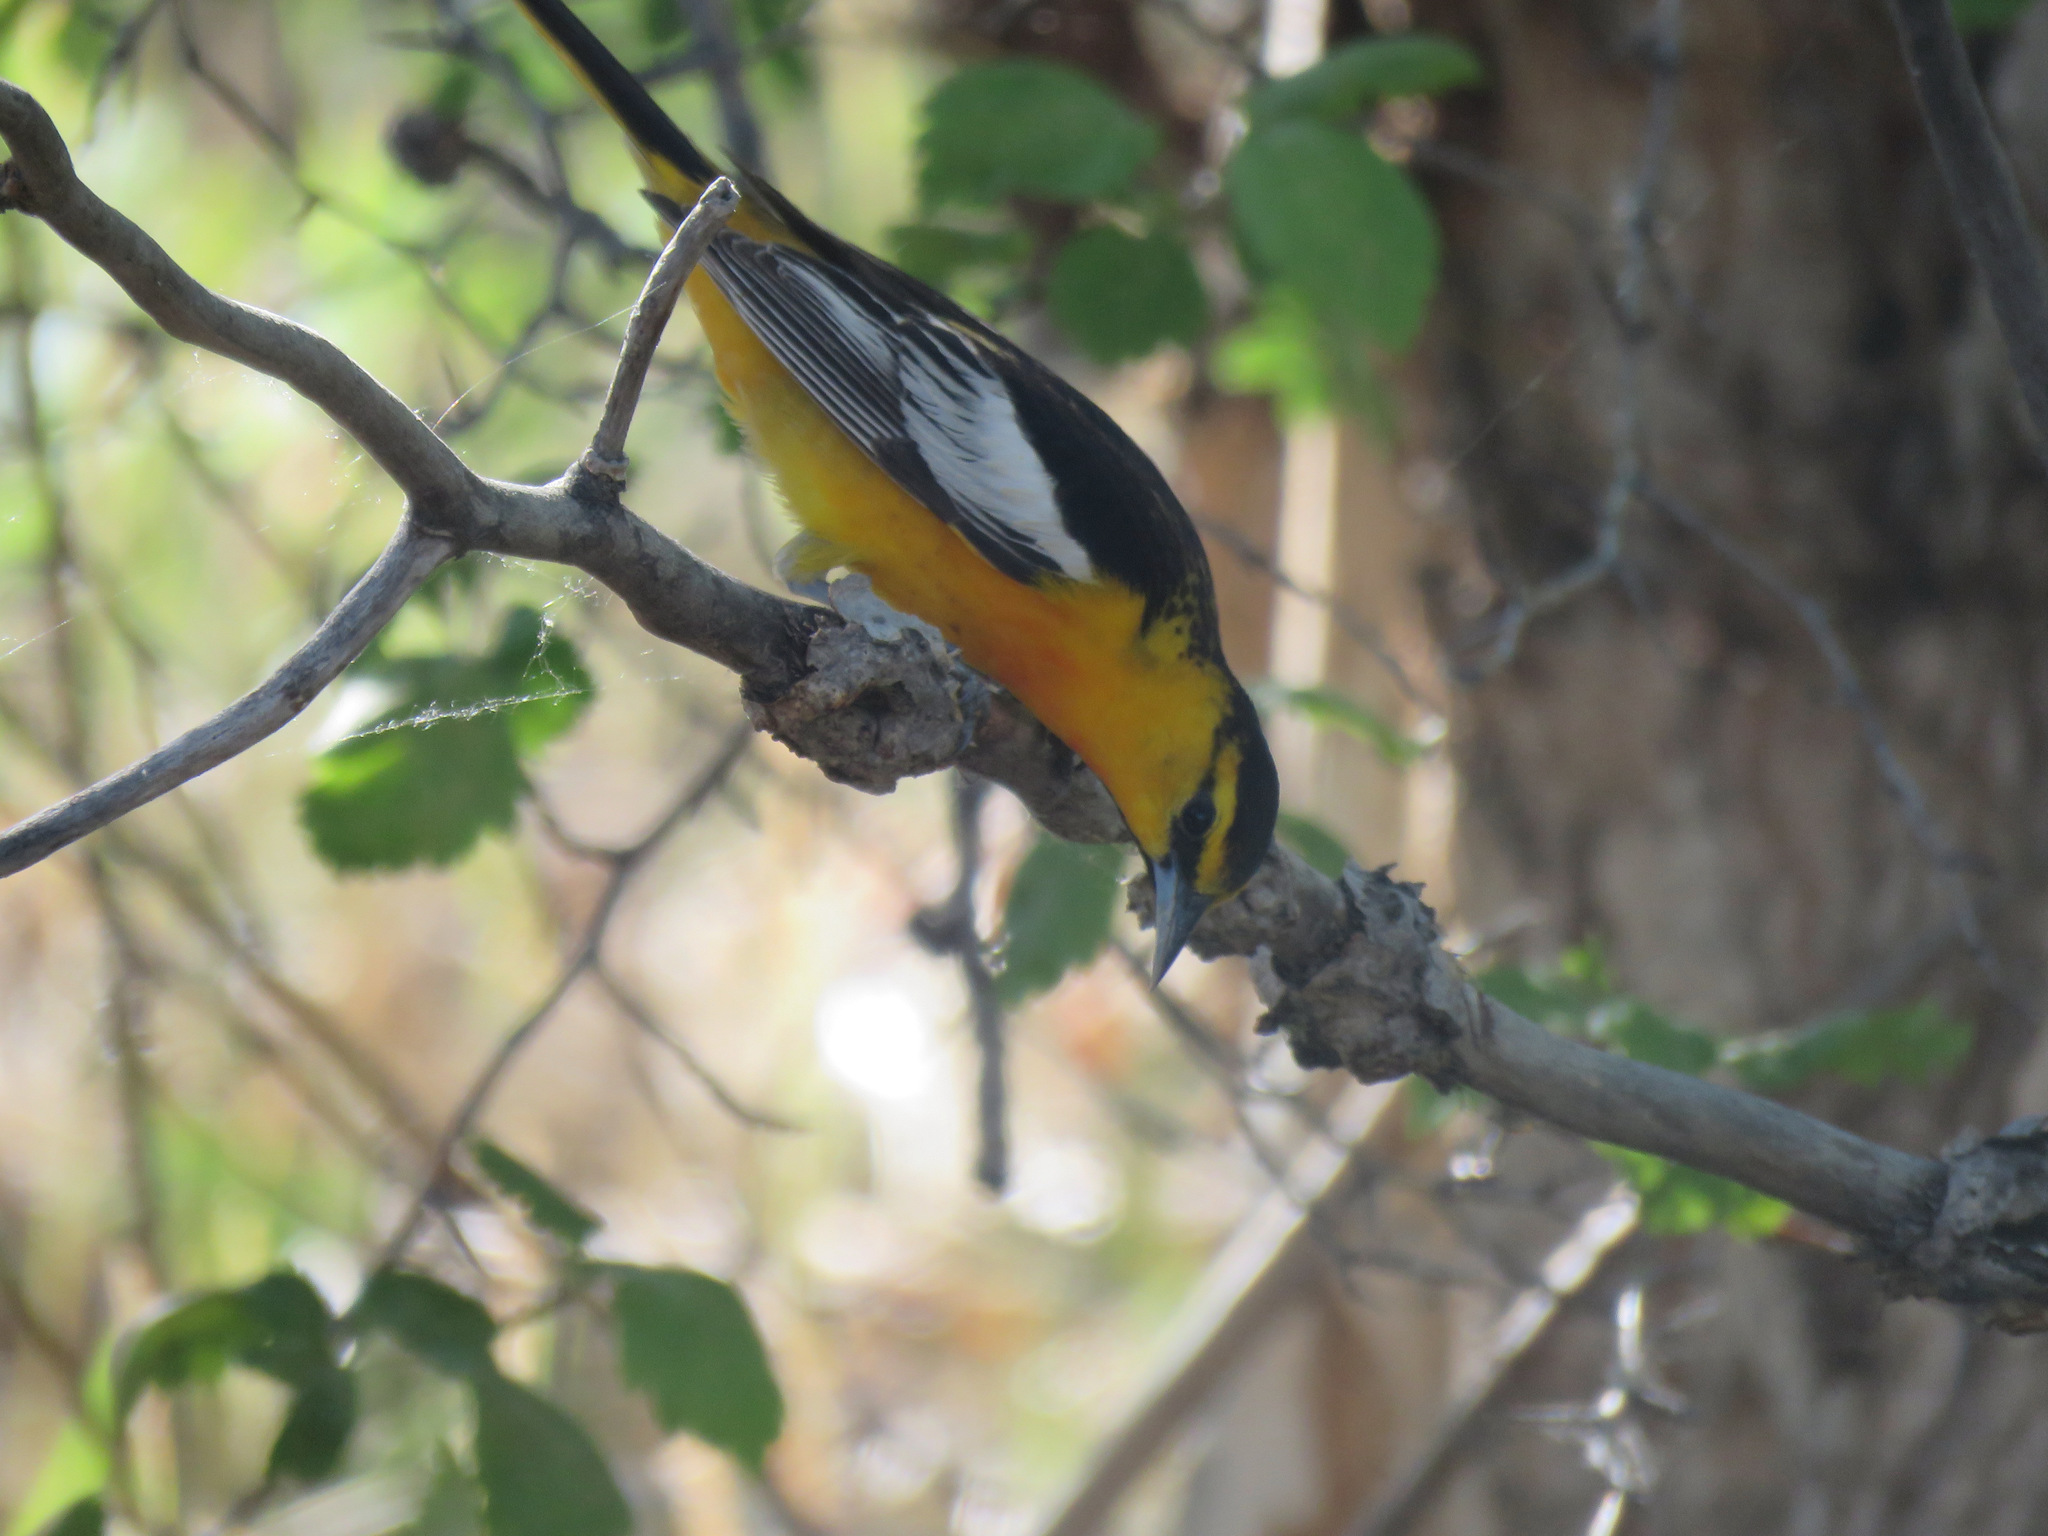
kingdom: Animalia
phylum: Chordata
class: Aves
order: Passeriformes
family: Icteridae
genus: Icterus
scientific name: Icterus bullockii
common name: Bullock's oriole
